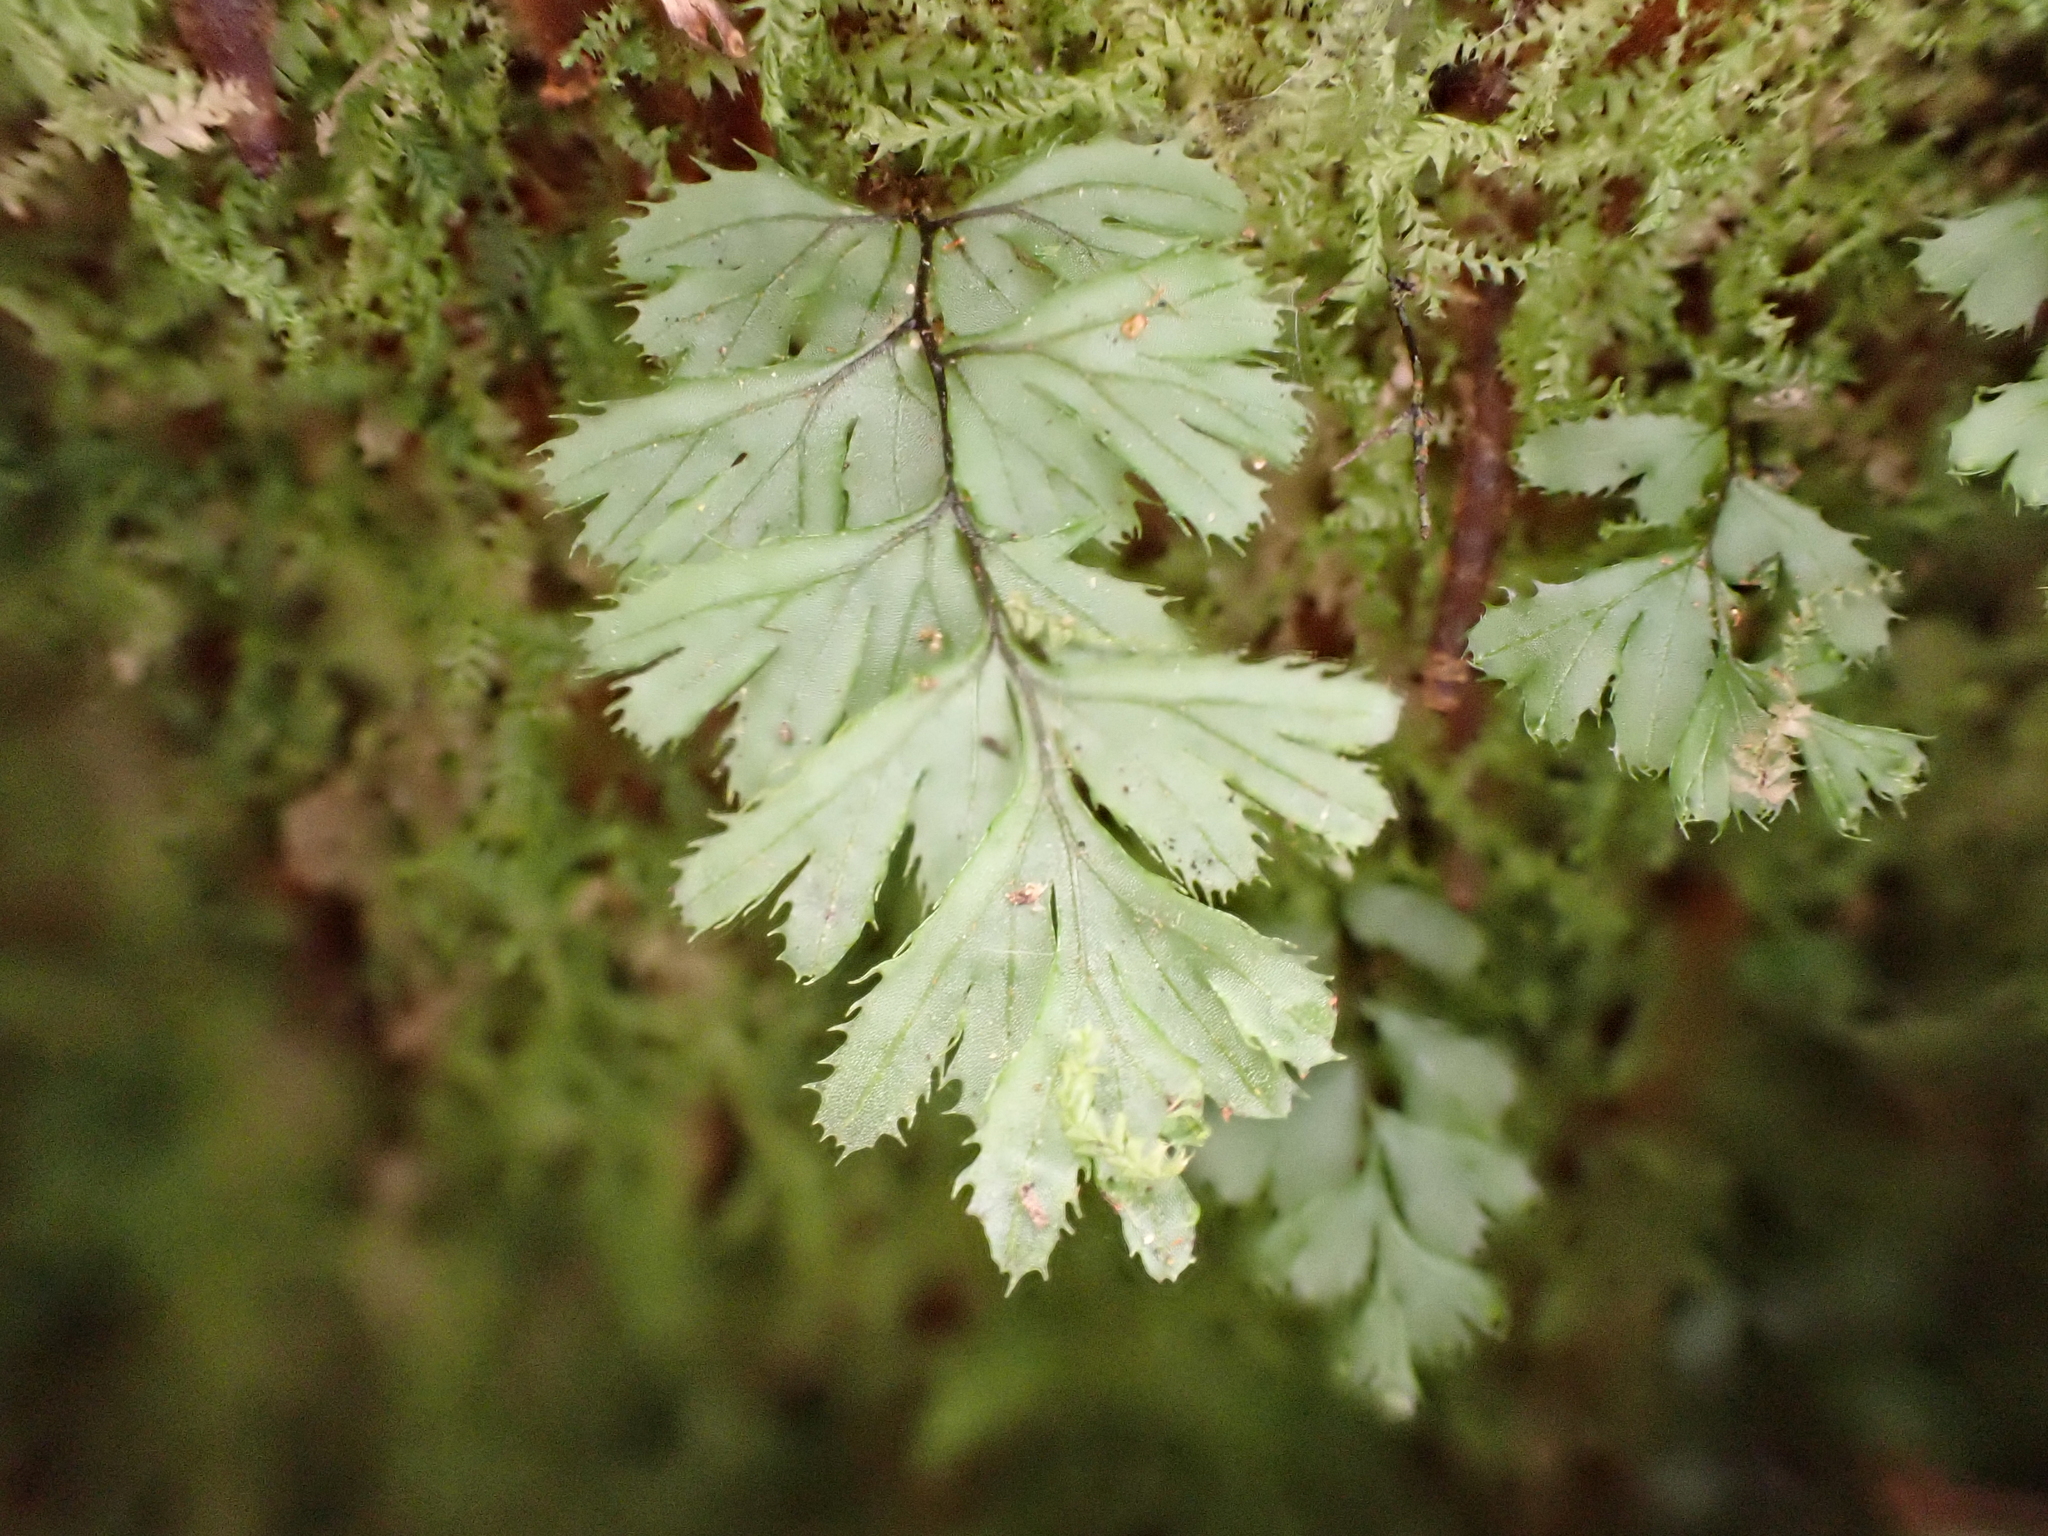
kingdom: Plantae
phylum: Tracheophyta
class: Polypodiopsida
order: Hymenophyllales
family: Hymenophyllaceae
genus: Hymenophyllum
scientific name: Hymenophyllum revolutum
